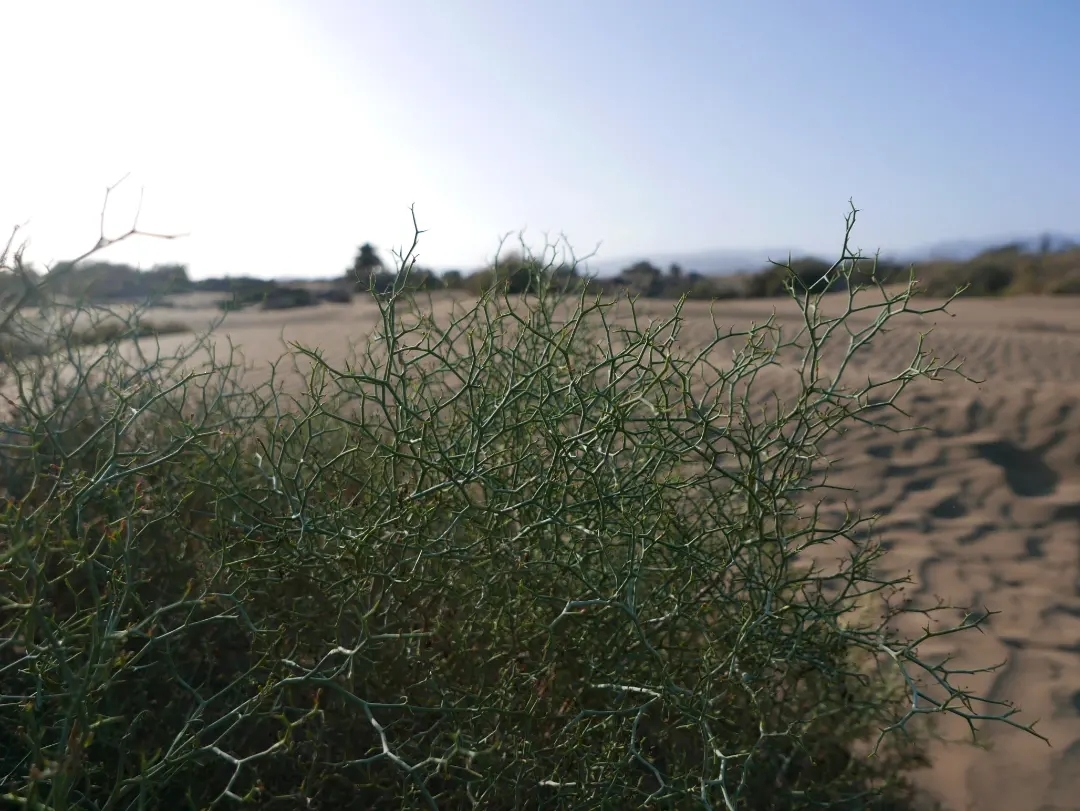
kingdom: Plantae
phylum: Tracheophyta
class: Magnoliopsida
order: Asterales
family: Asteraceae
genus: Launaea
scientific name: Launaea arborescens
